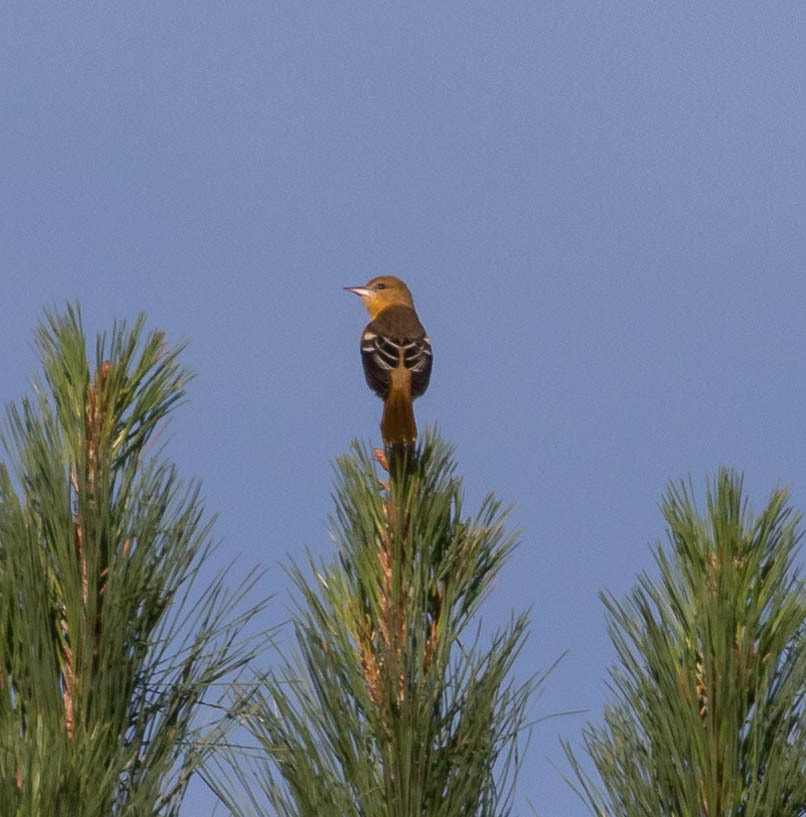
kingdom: Animalia
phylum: Chordata
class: Aves
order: Passeriformes
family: Icteridae
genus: Icterus
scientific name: Icterus galbula
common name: Baltimore oriole
